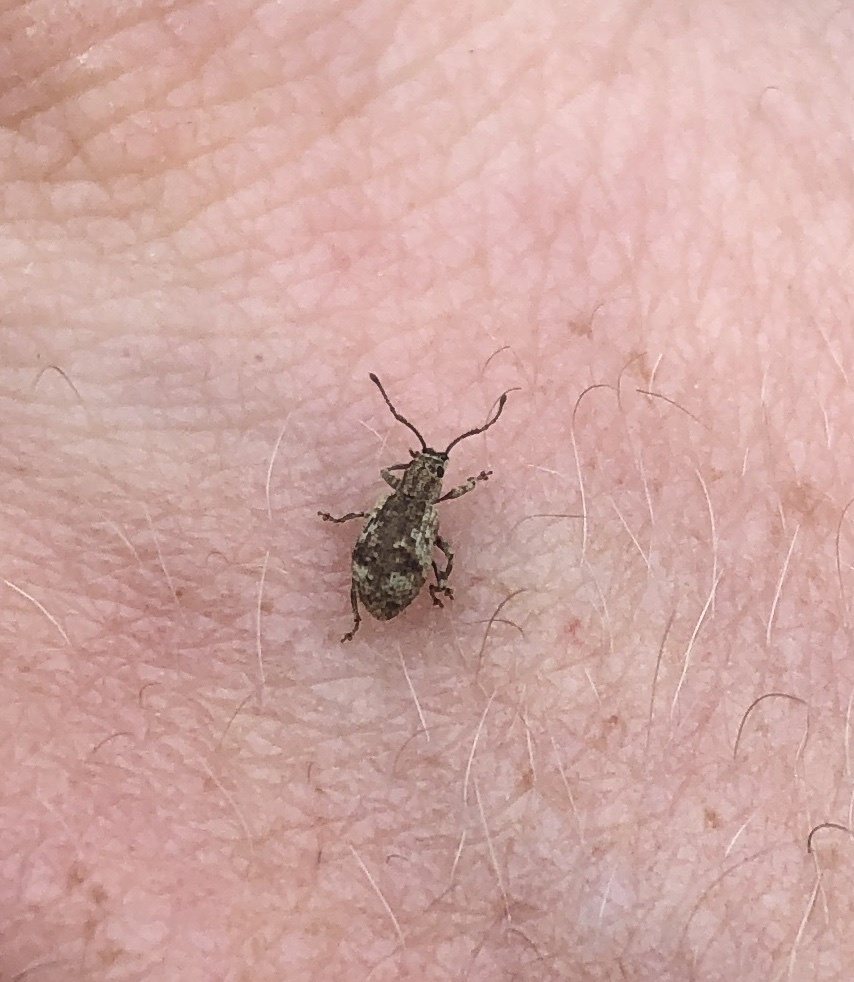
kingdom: Animalia
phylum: Arthropoda
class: Insecta
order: Coleoptera
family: Curculionidae
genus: Pseudoedophrys
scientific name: Pseudoedophrys hilleri
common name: Weevil
